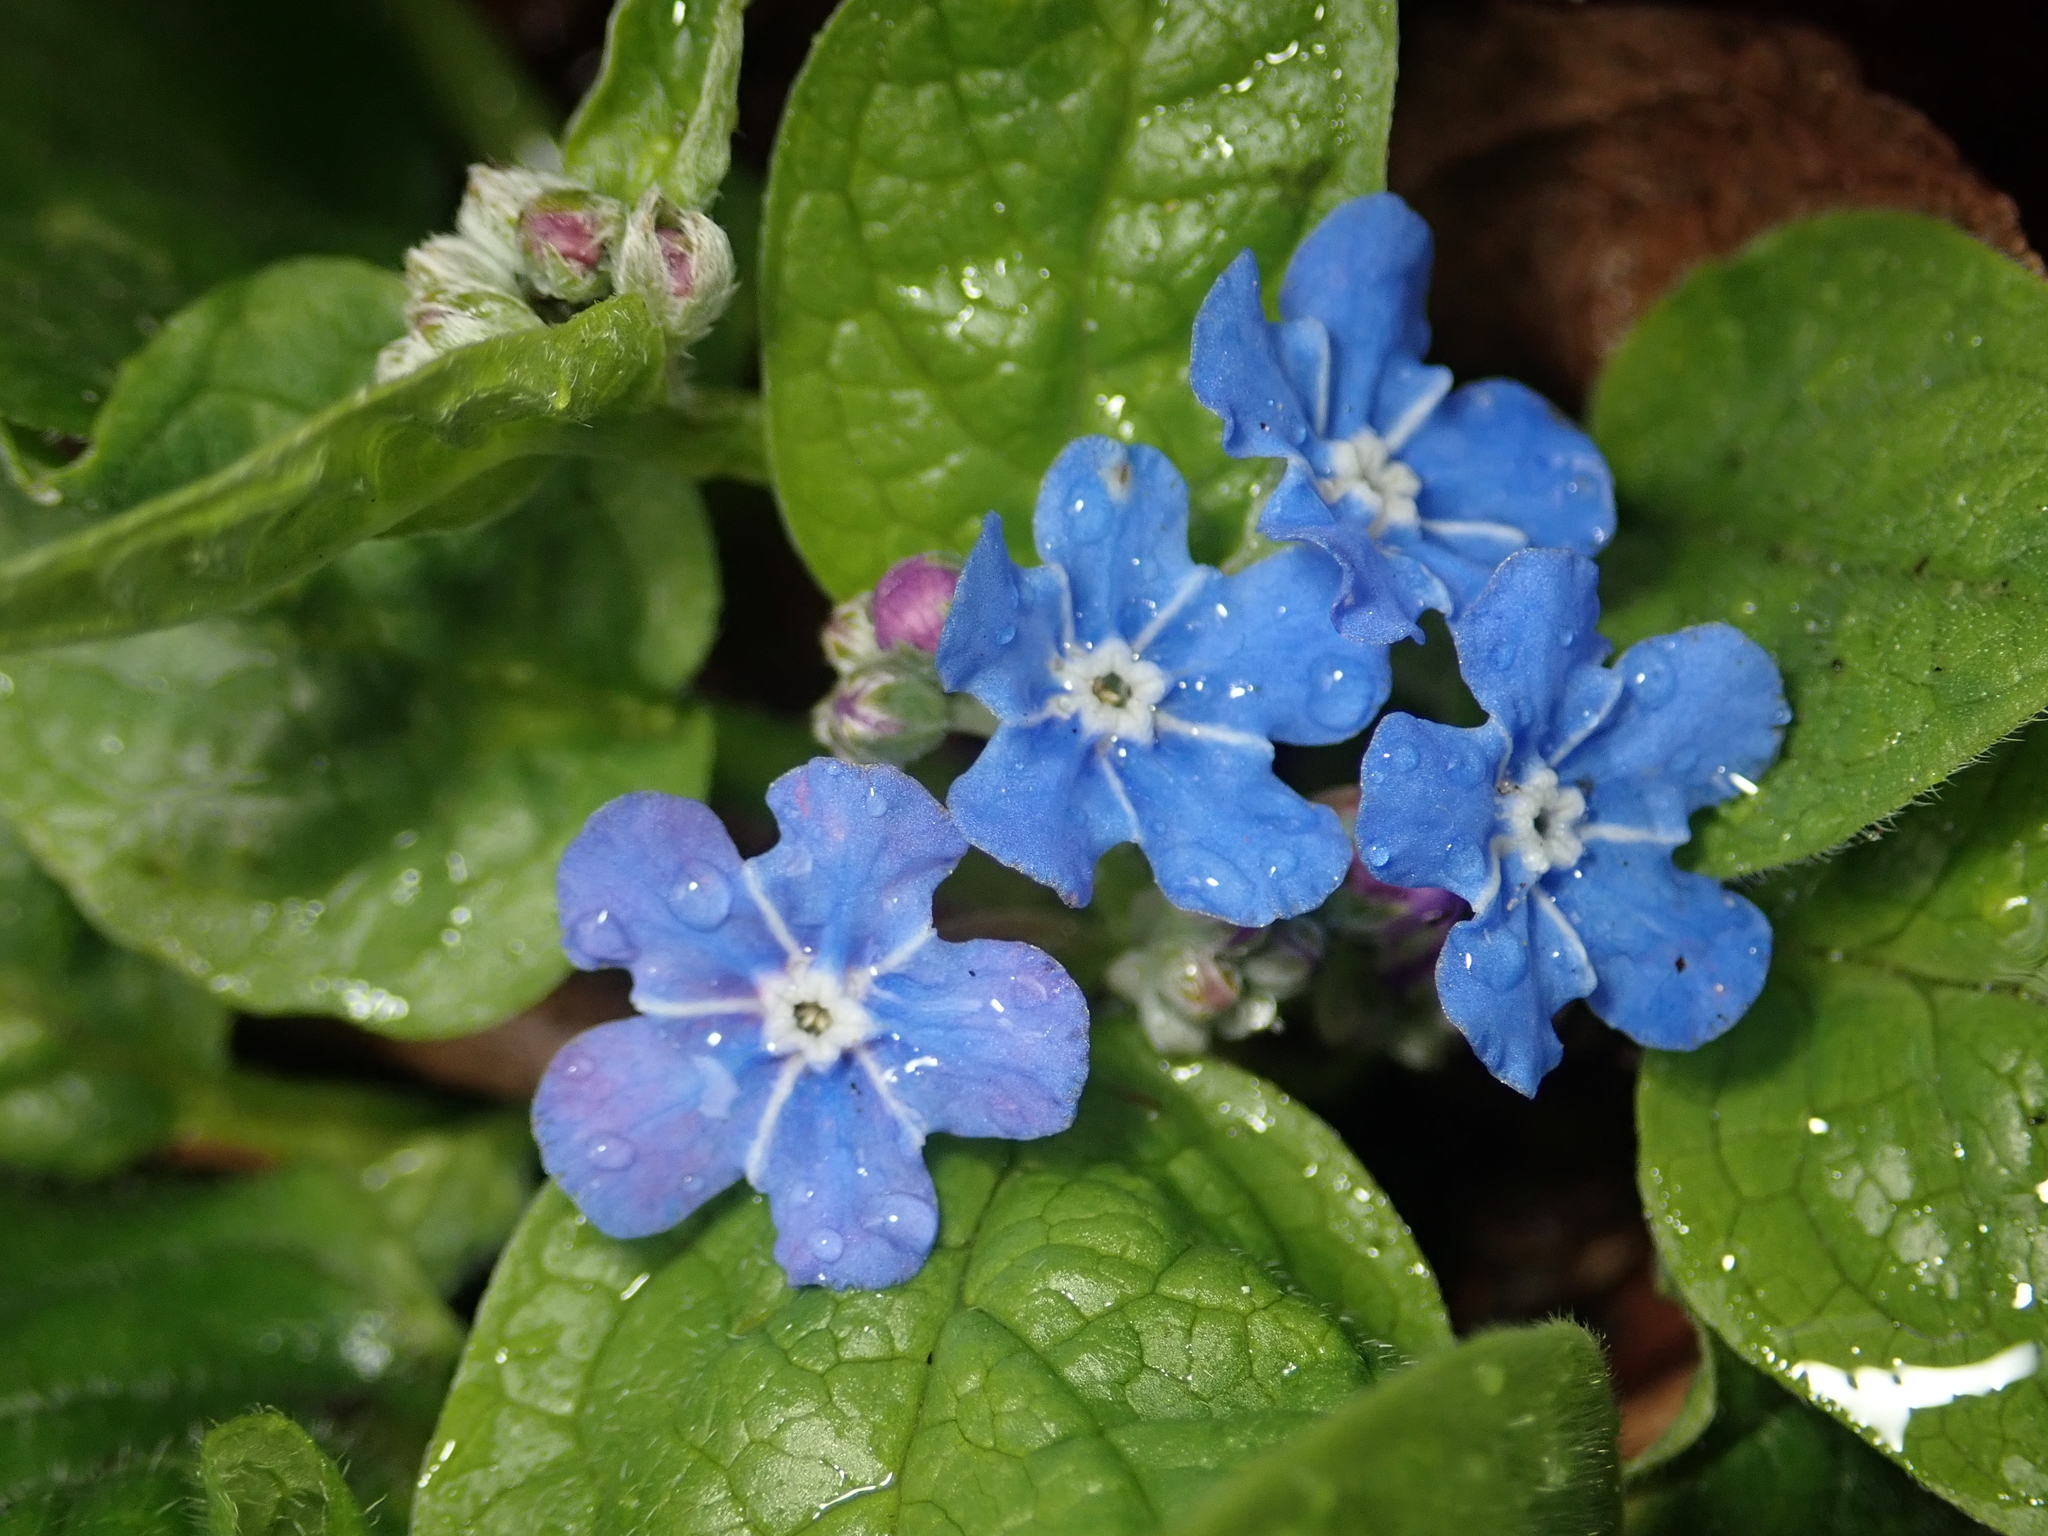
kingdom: Plantae
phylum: Tracheophyta
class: Magnoliopsida
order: Boraginales
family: Boraginaceae
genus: Omphalodes
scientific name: Omphalodes verna
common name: Blue-eyed-mary
